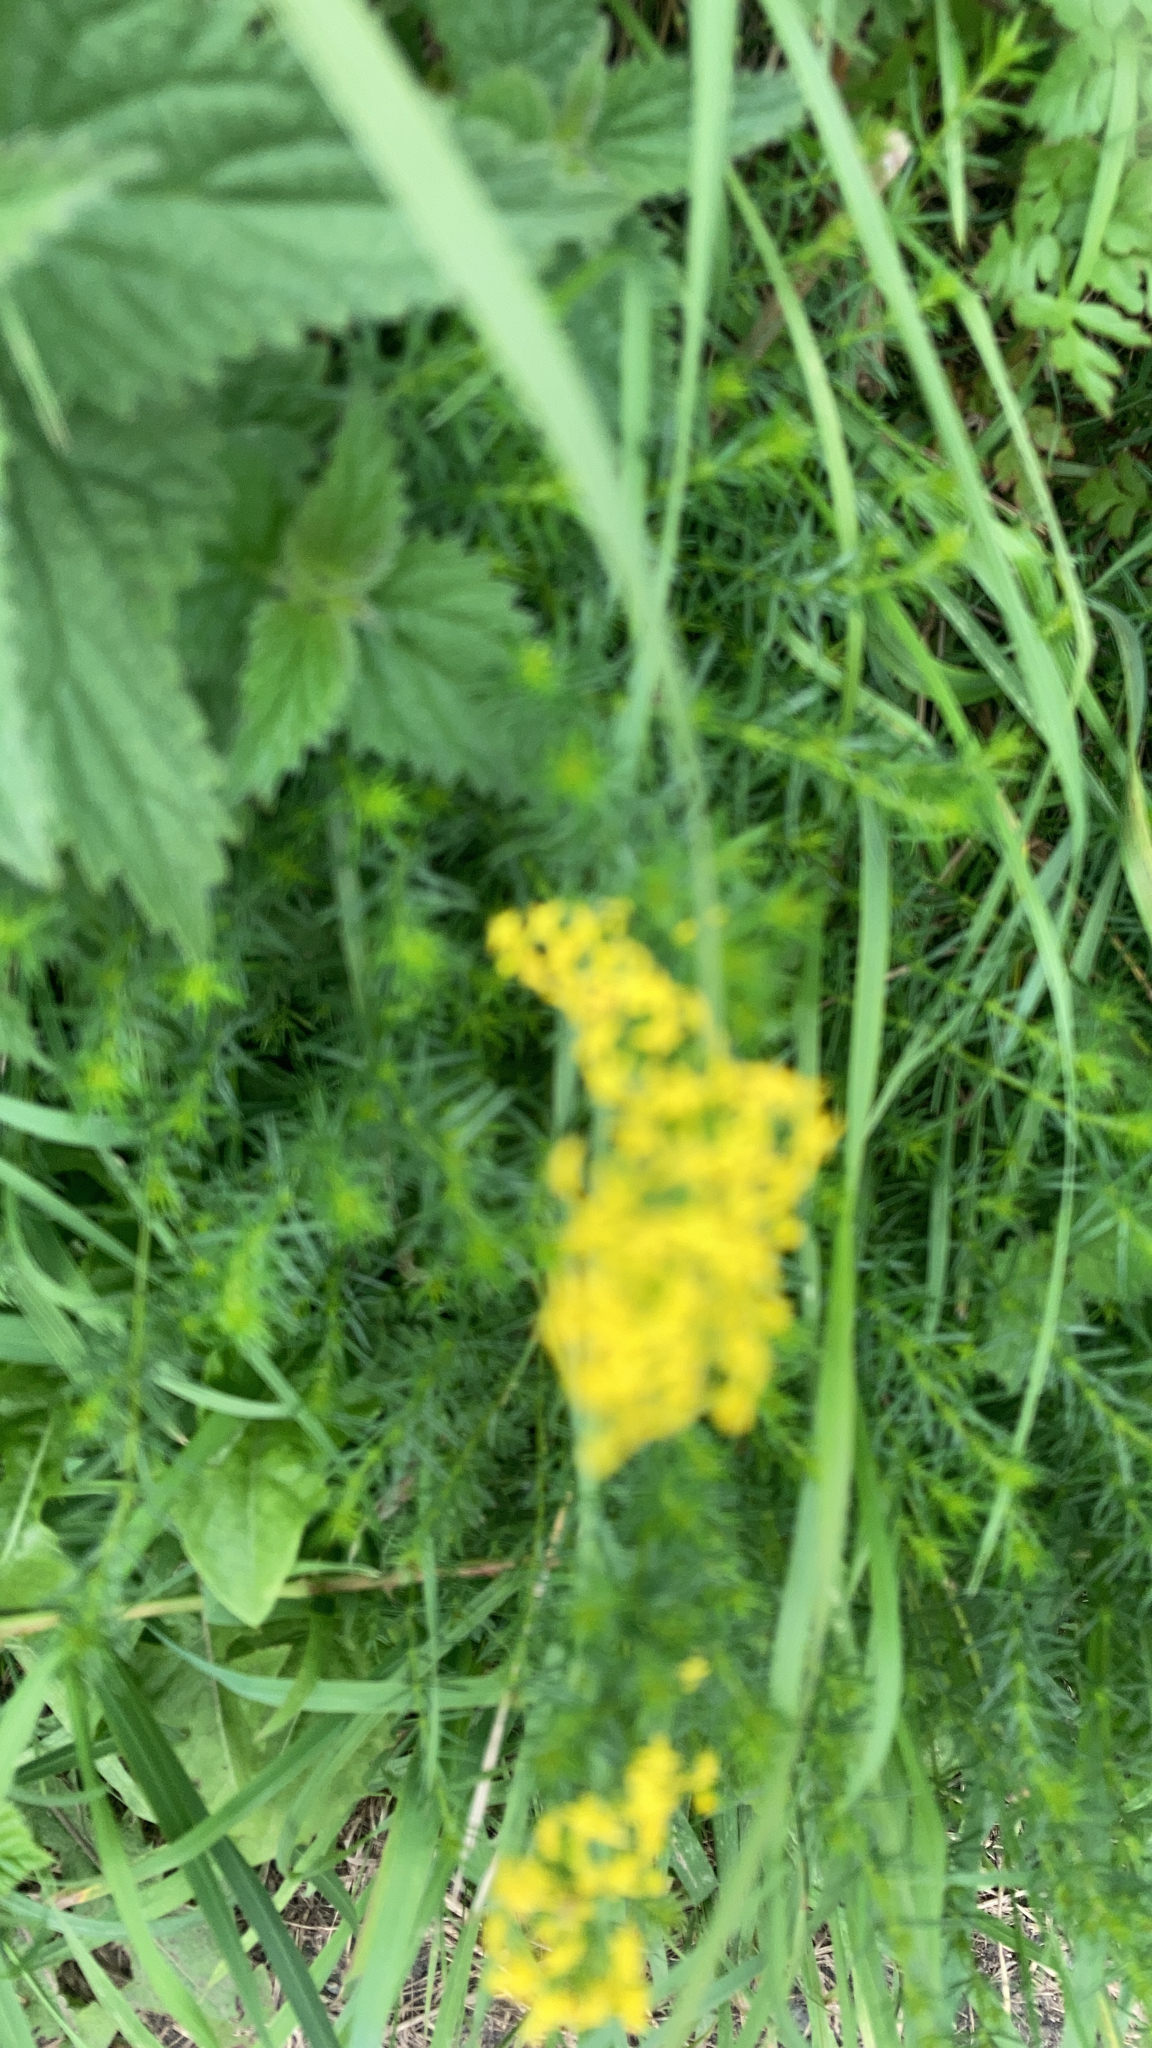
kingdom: Plantae
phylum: Tracheophyta
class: Magnoliopsida
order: Gentianales
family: Rubiaceae
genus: Galium
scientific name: Galium verum
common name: Lady's bedstraw
